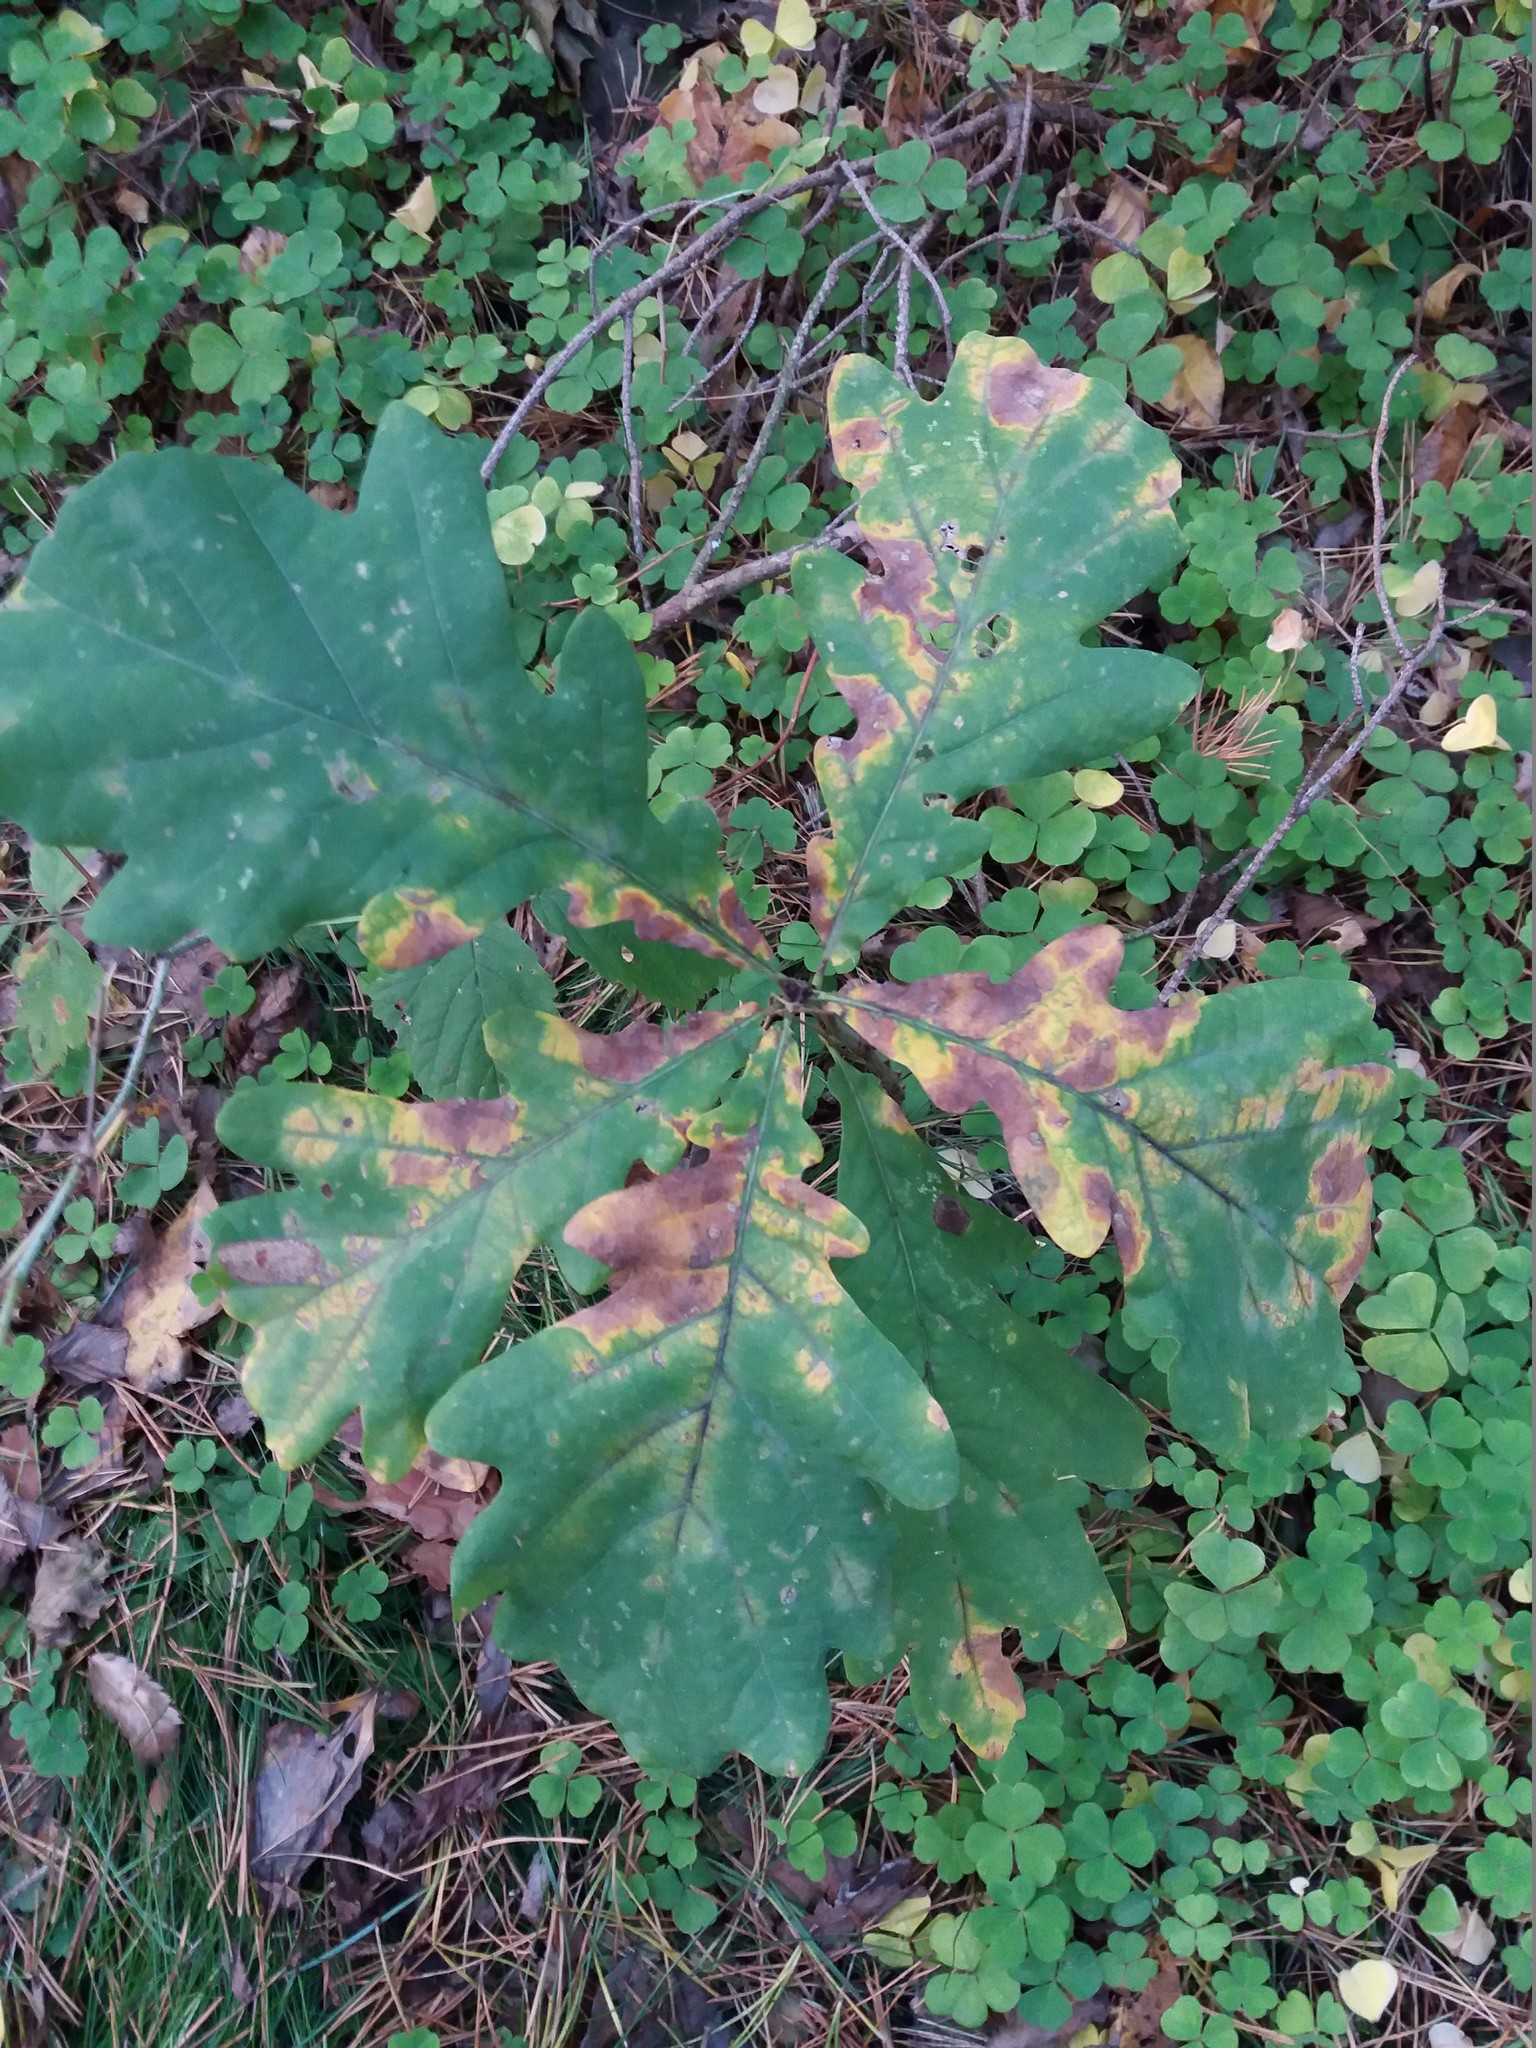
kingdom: Plantae
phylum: Tracheophyta
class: Magnoliopsida
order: Fagales
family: Fagaceae
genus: Quercus
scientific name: Quercus robur
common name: Pedunculate oak
